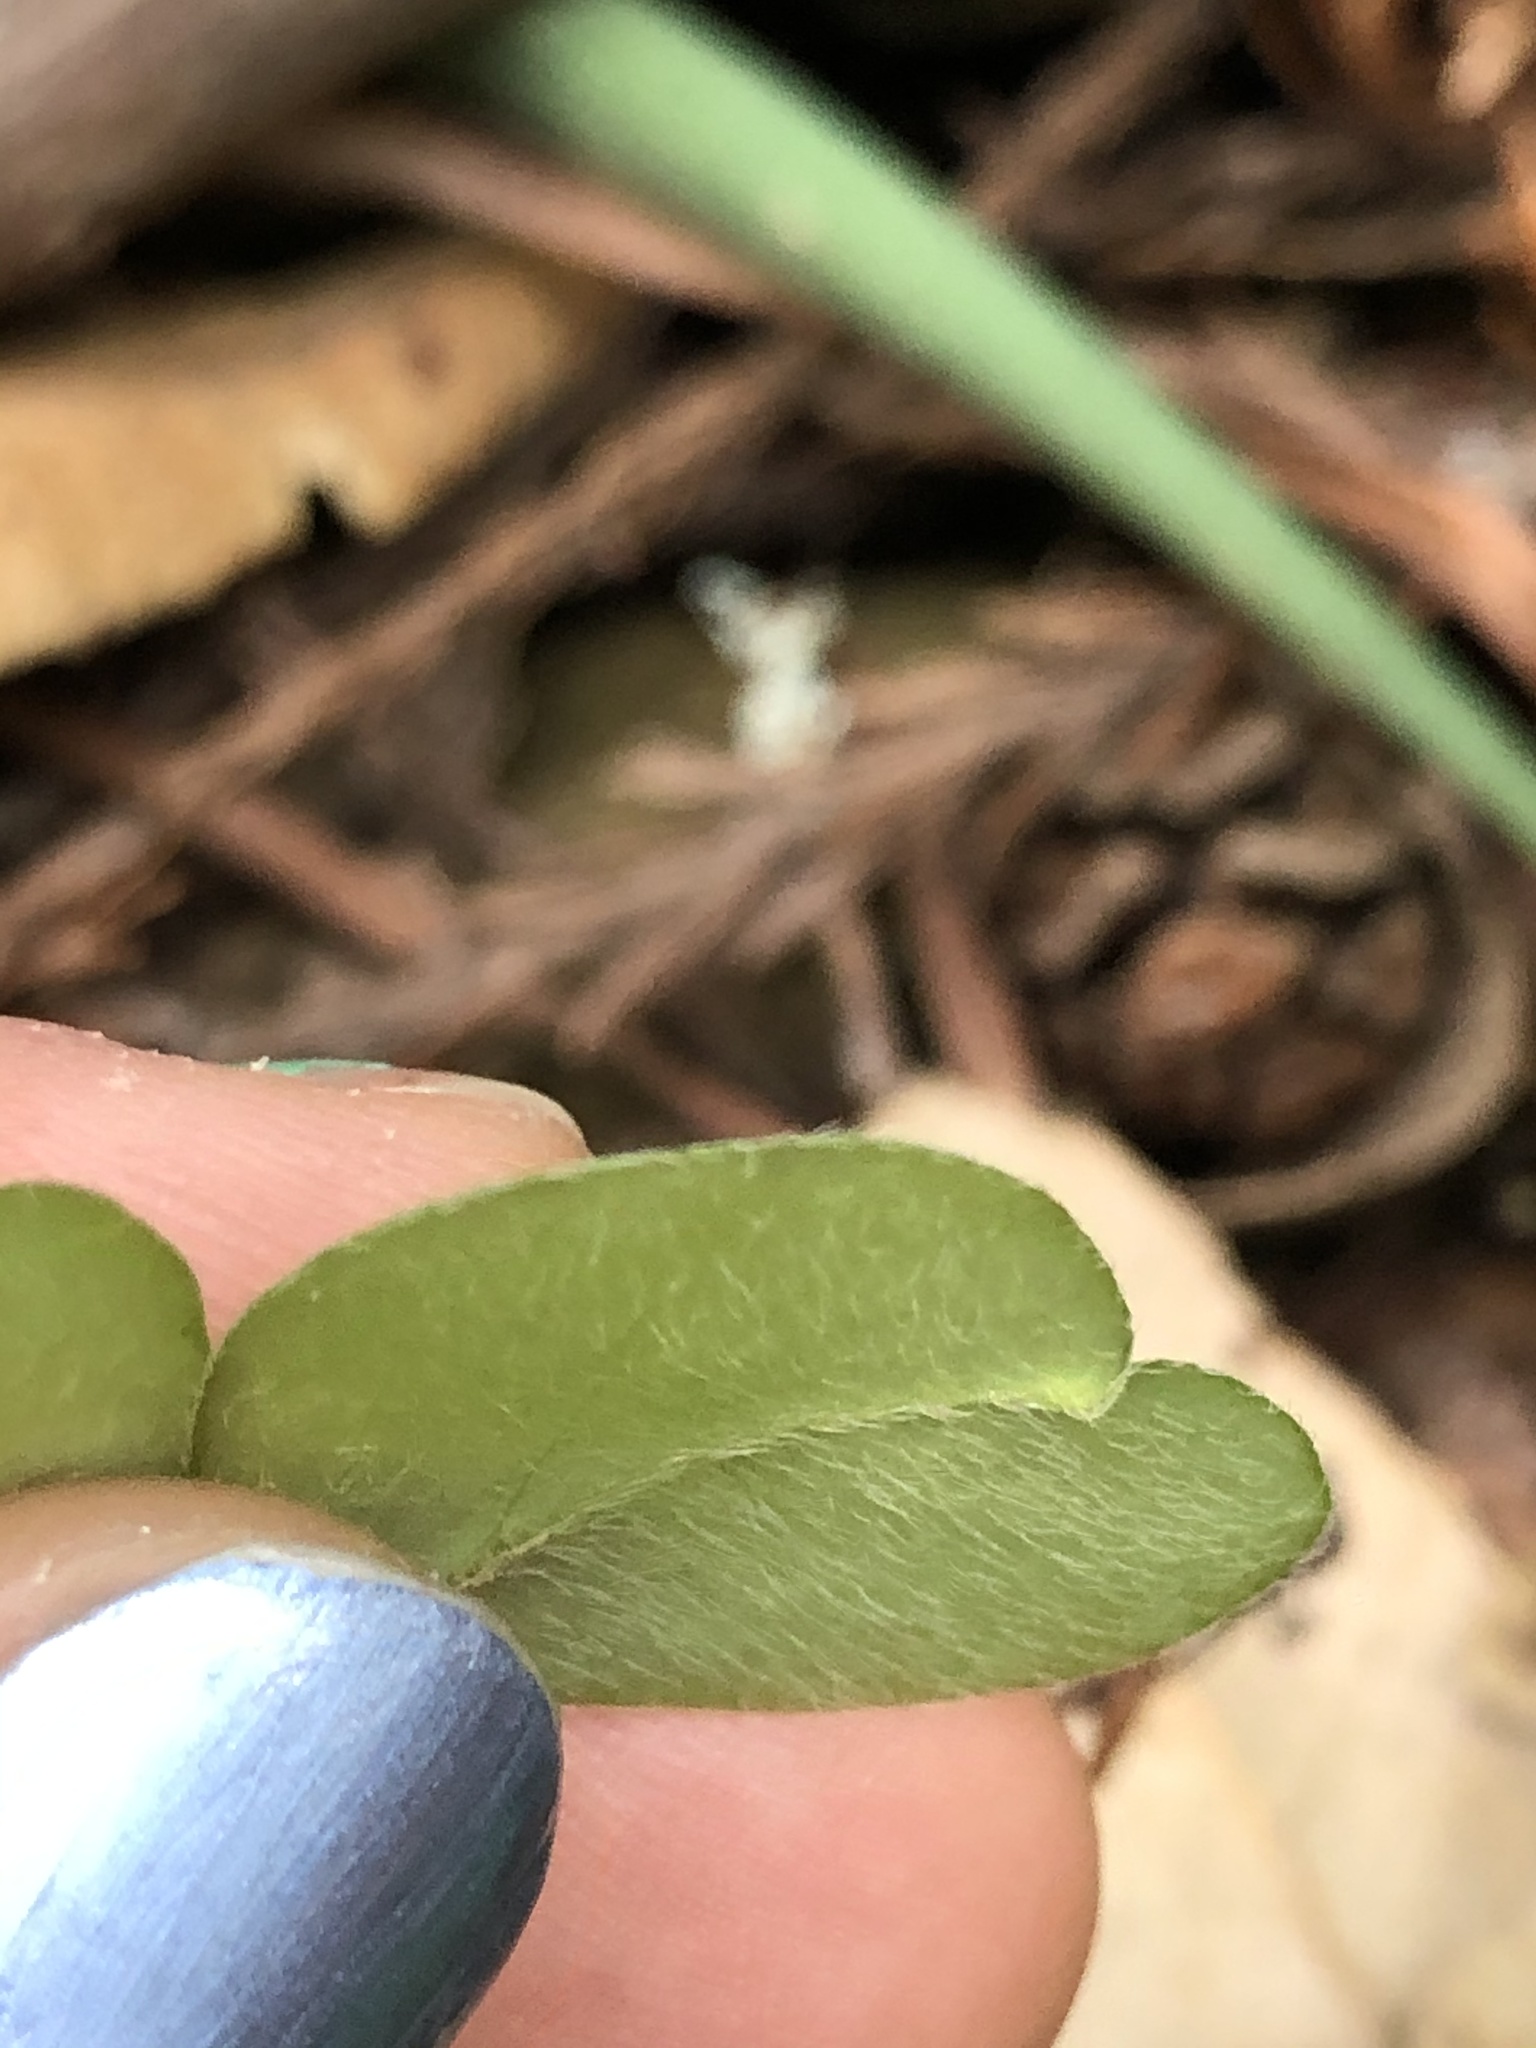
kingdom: Plantae
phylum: Tracheophyta
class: Magnoliopsida
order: Oxalidales
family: Oxalidaceae
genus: Oxalis
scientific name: Oxalis oregana
